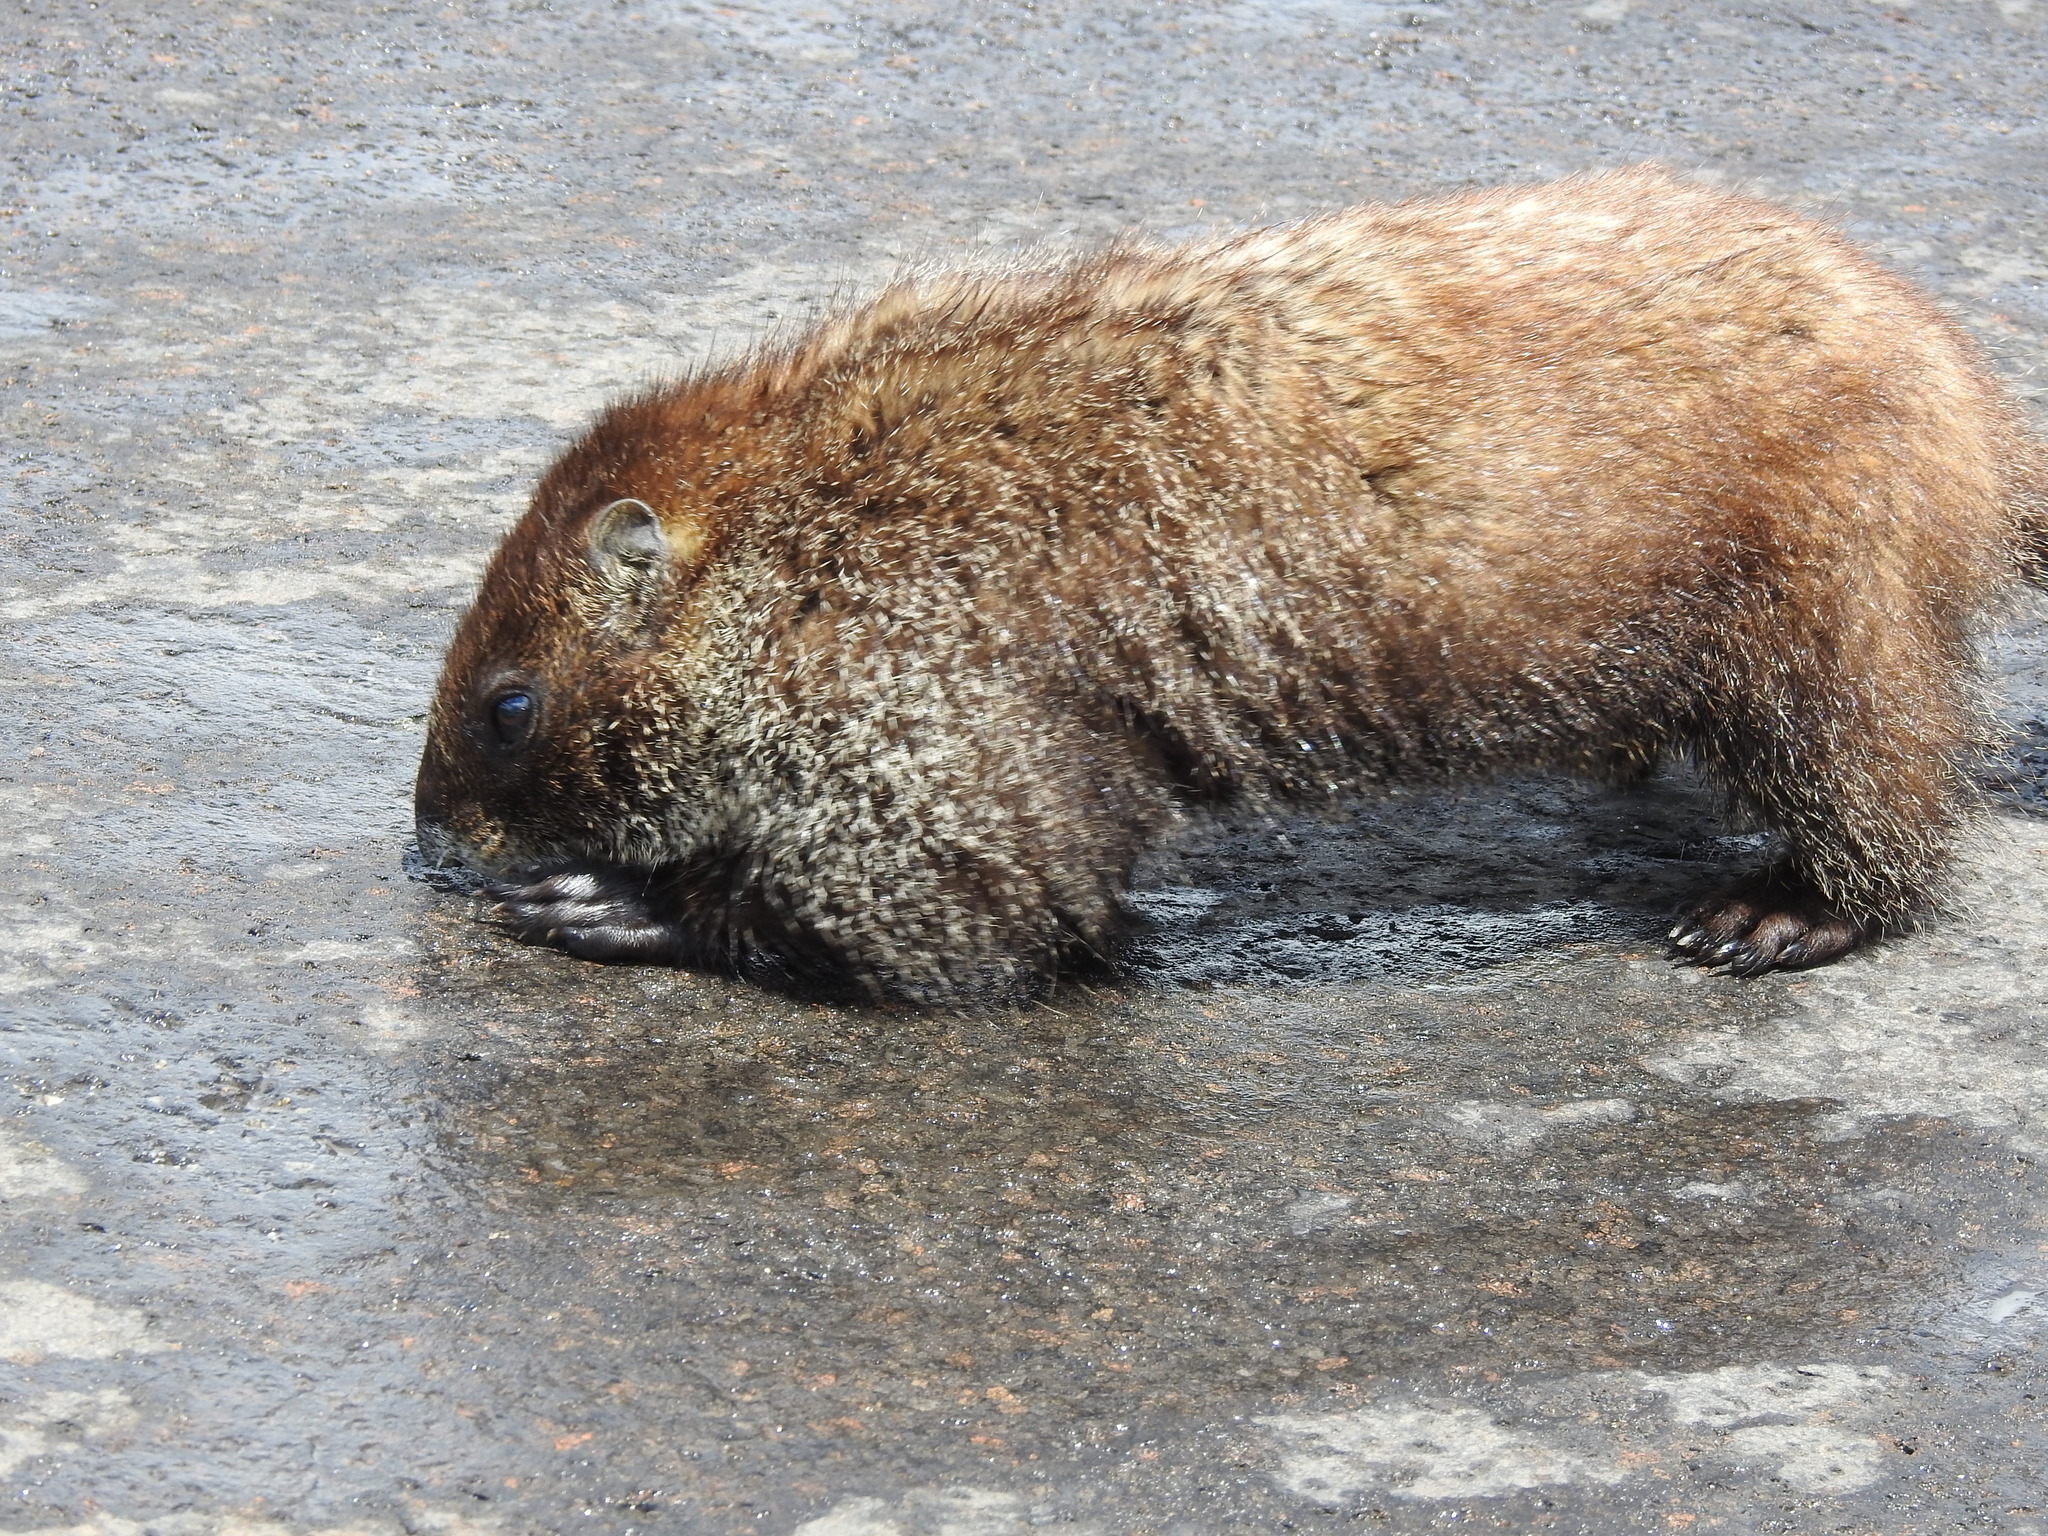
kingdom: Animalia
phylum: Chordata
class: Mammalia
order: Rodentia
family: Sciuridae
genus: Marmota
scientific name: Marmota flaviventris
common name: Yellow-bellied marmot
